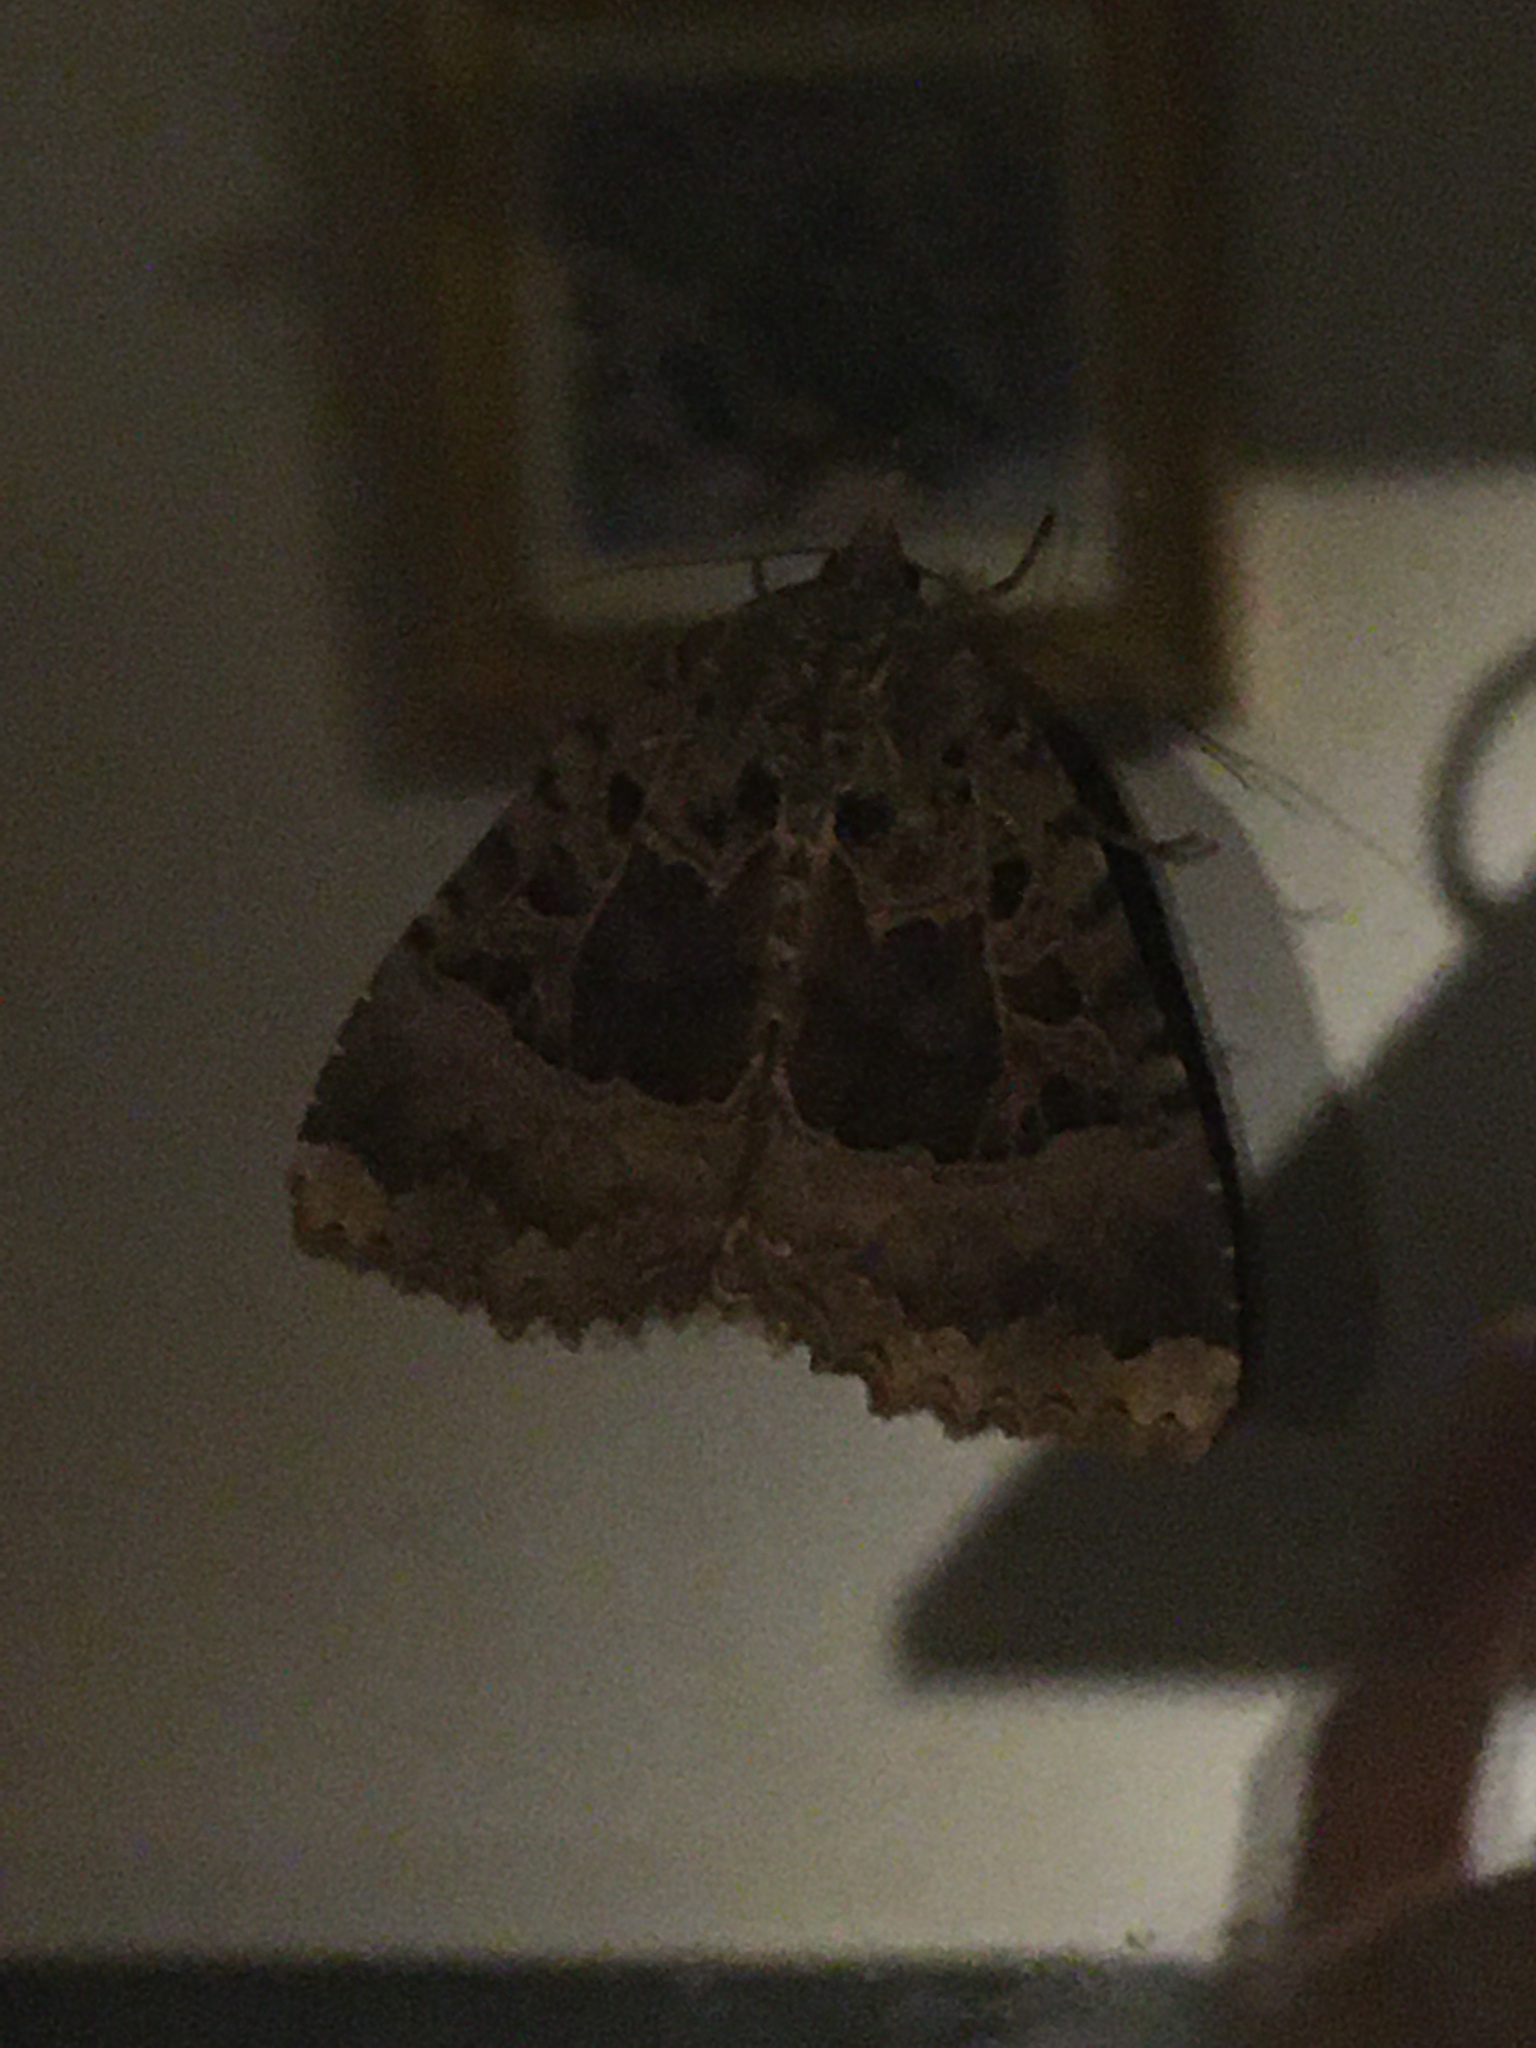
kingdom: Animalia
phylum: Arthropoda
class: Insecta
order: Lepidoptera
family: Noctuidae
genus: Mormo
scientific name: Mormo maura
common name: Old lady
